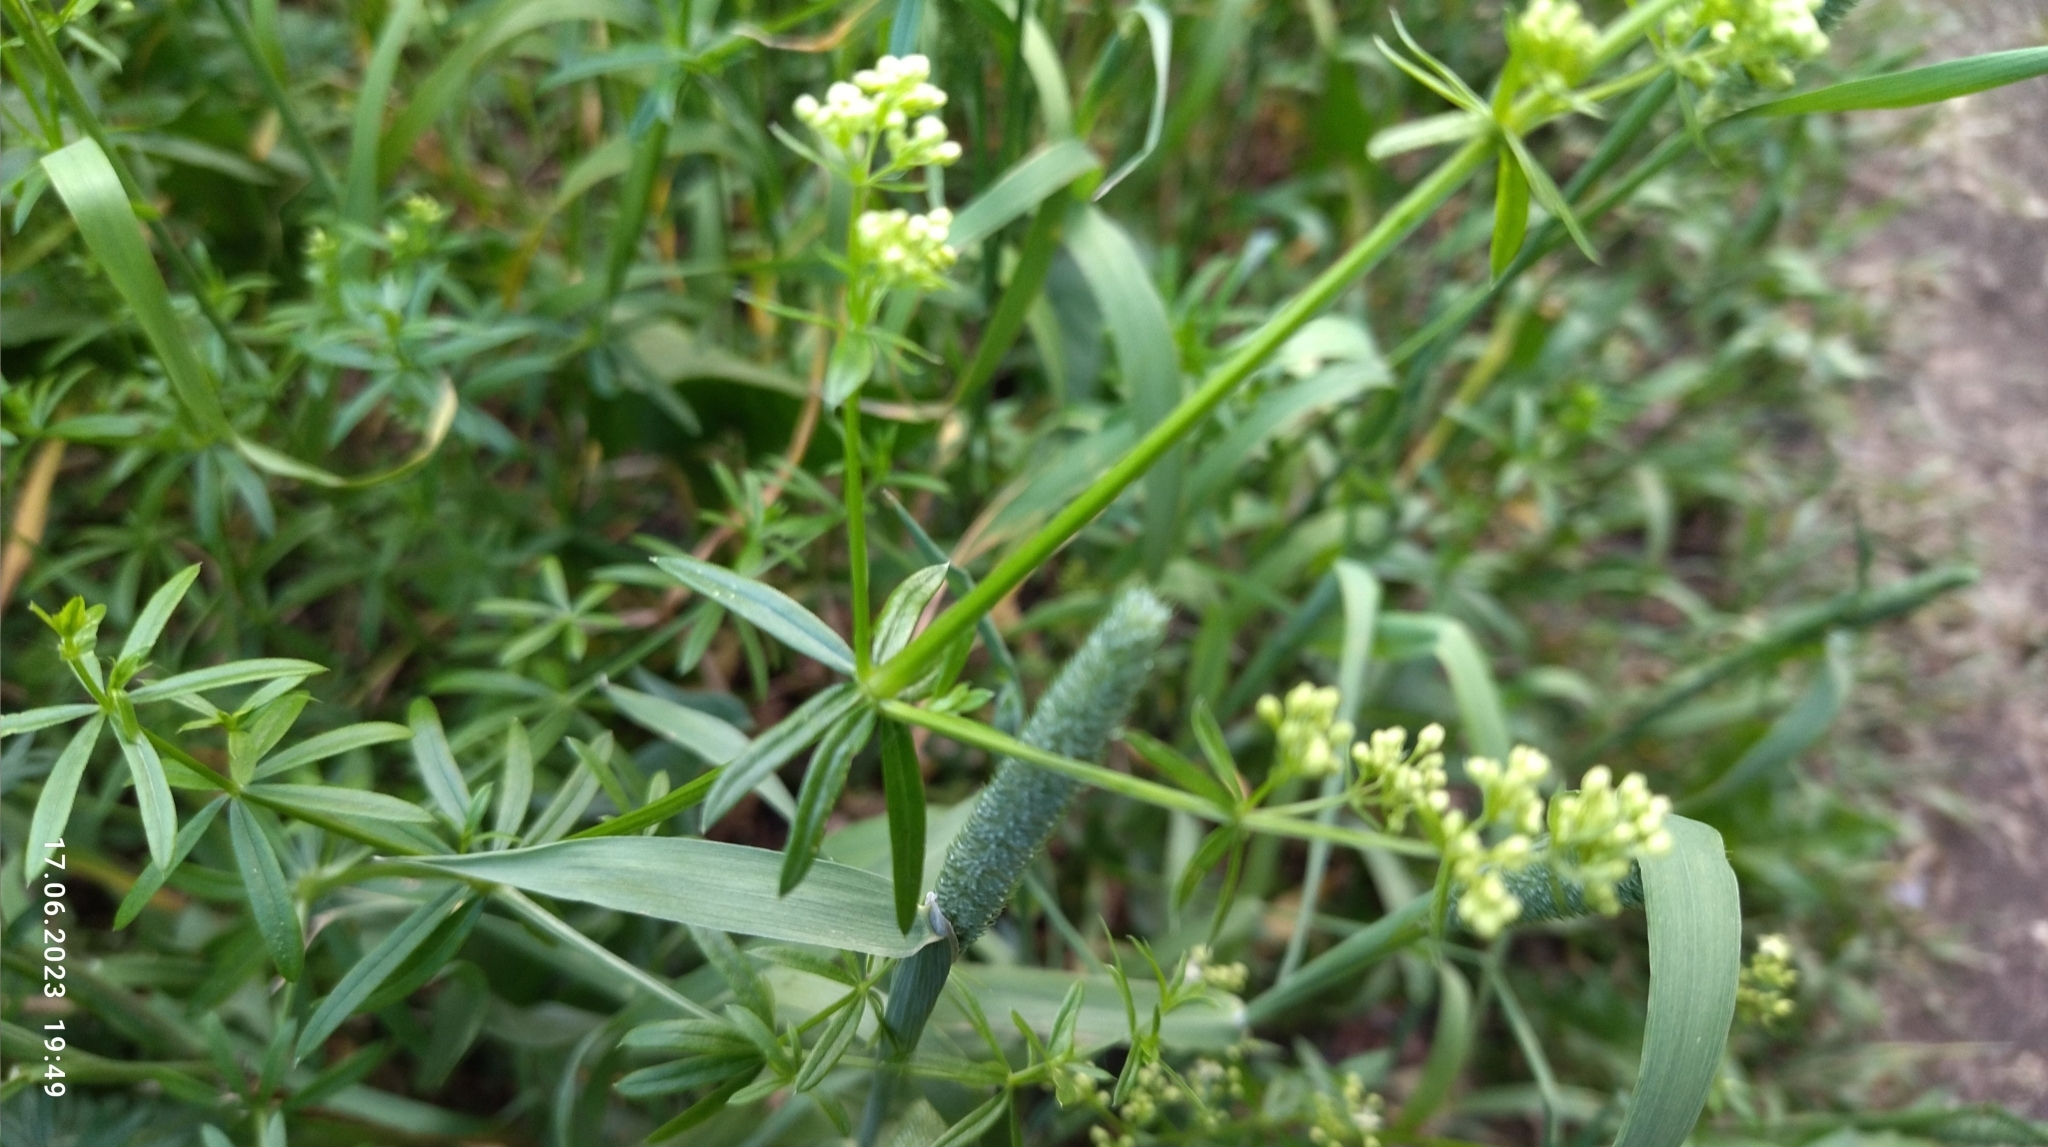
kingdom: Plantae
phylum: Tracheophyta
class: Magnoliopsida
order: Gentianales
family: Rubiaceae
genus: Galium
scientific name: Galium mollugo
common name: Hedge bedstraw
